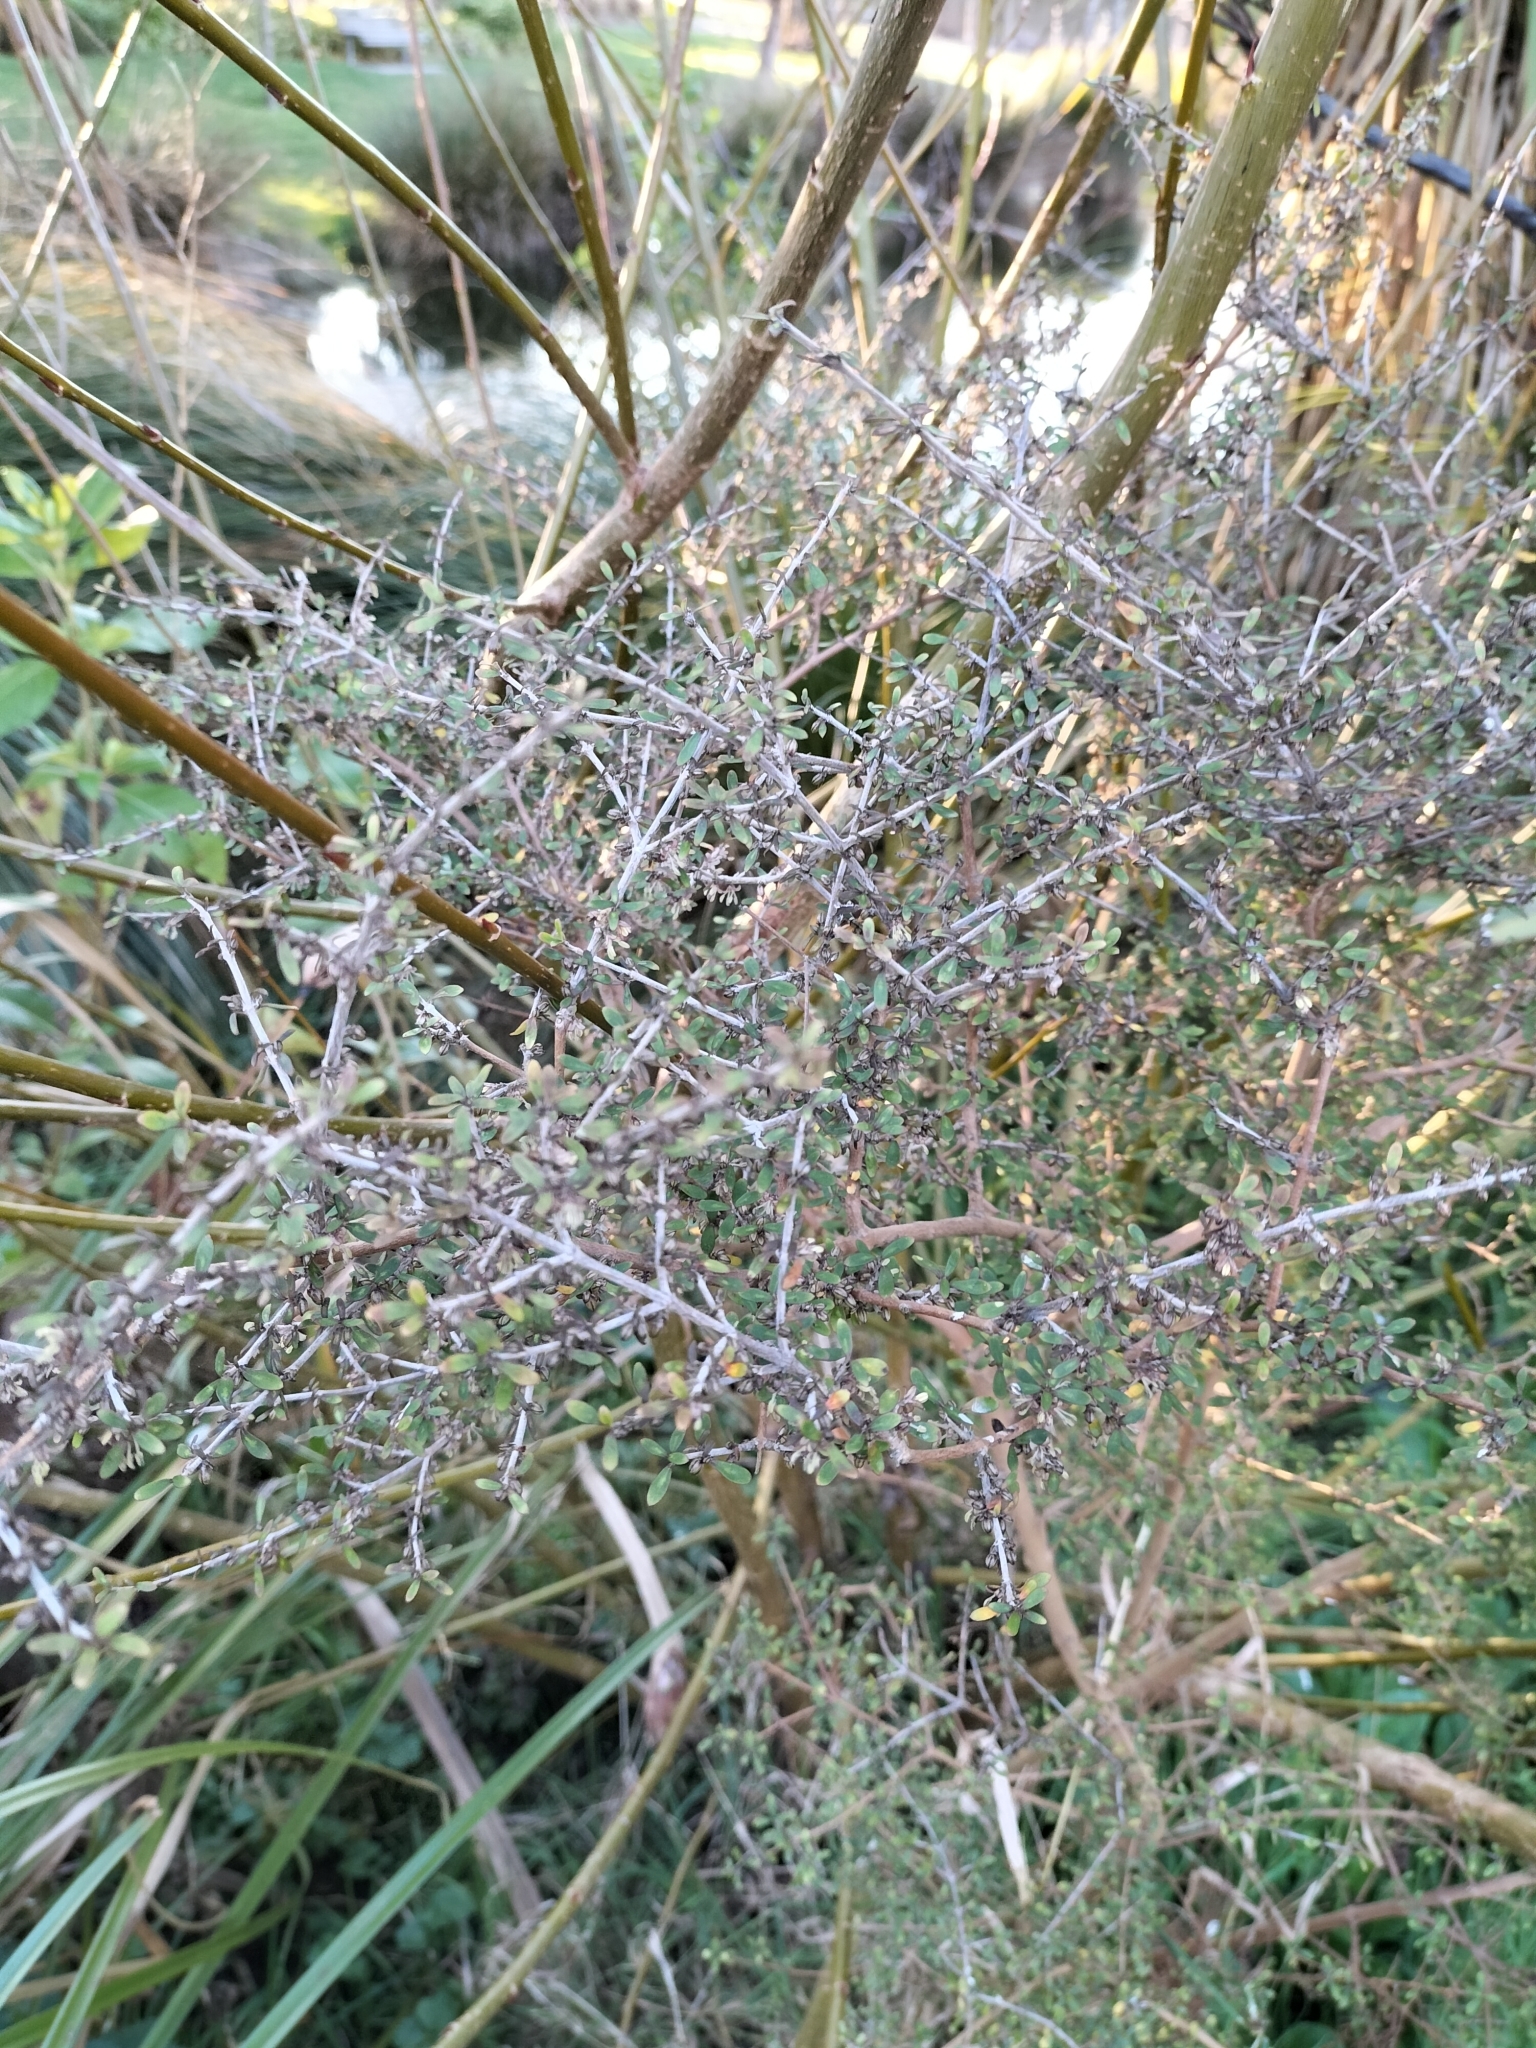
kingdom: Plantae
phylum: Tracheophyta
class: Magnoliopsida
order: Gentianales
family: Rubiaceae
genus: Coprosma
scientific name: Coprosma dumosa
